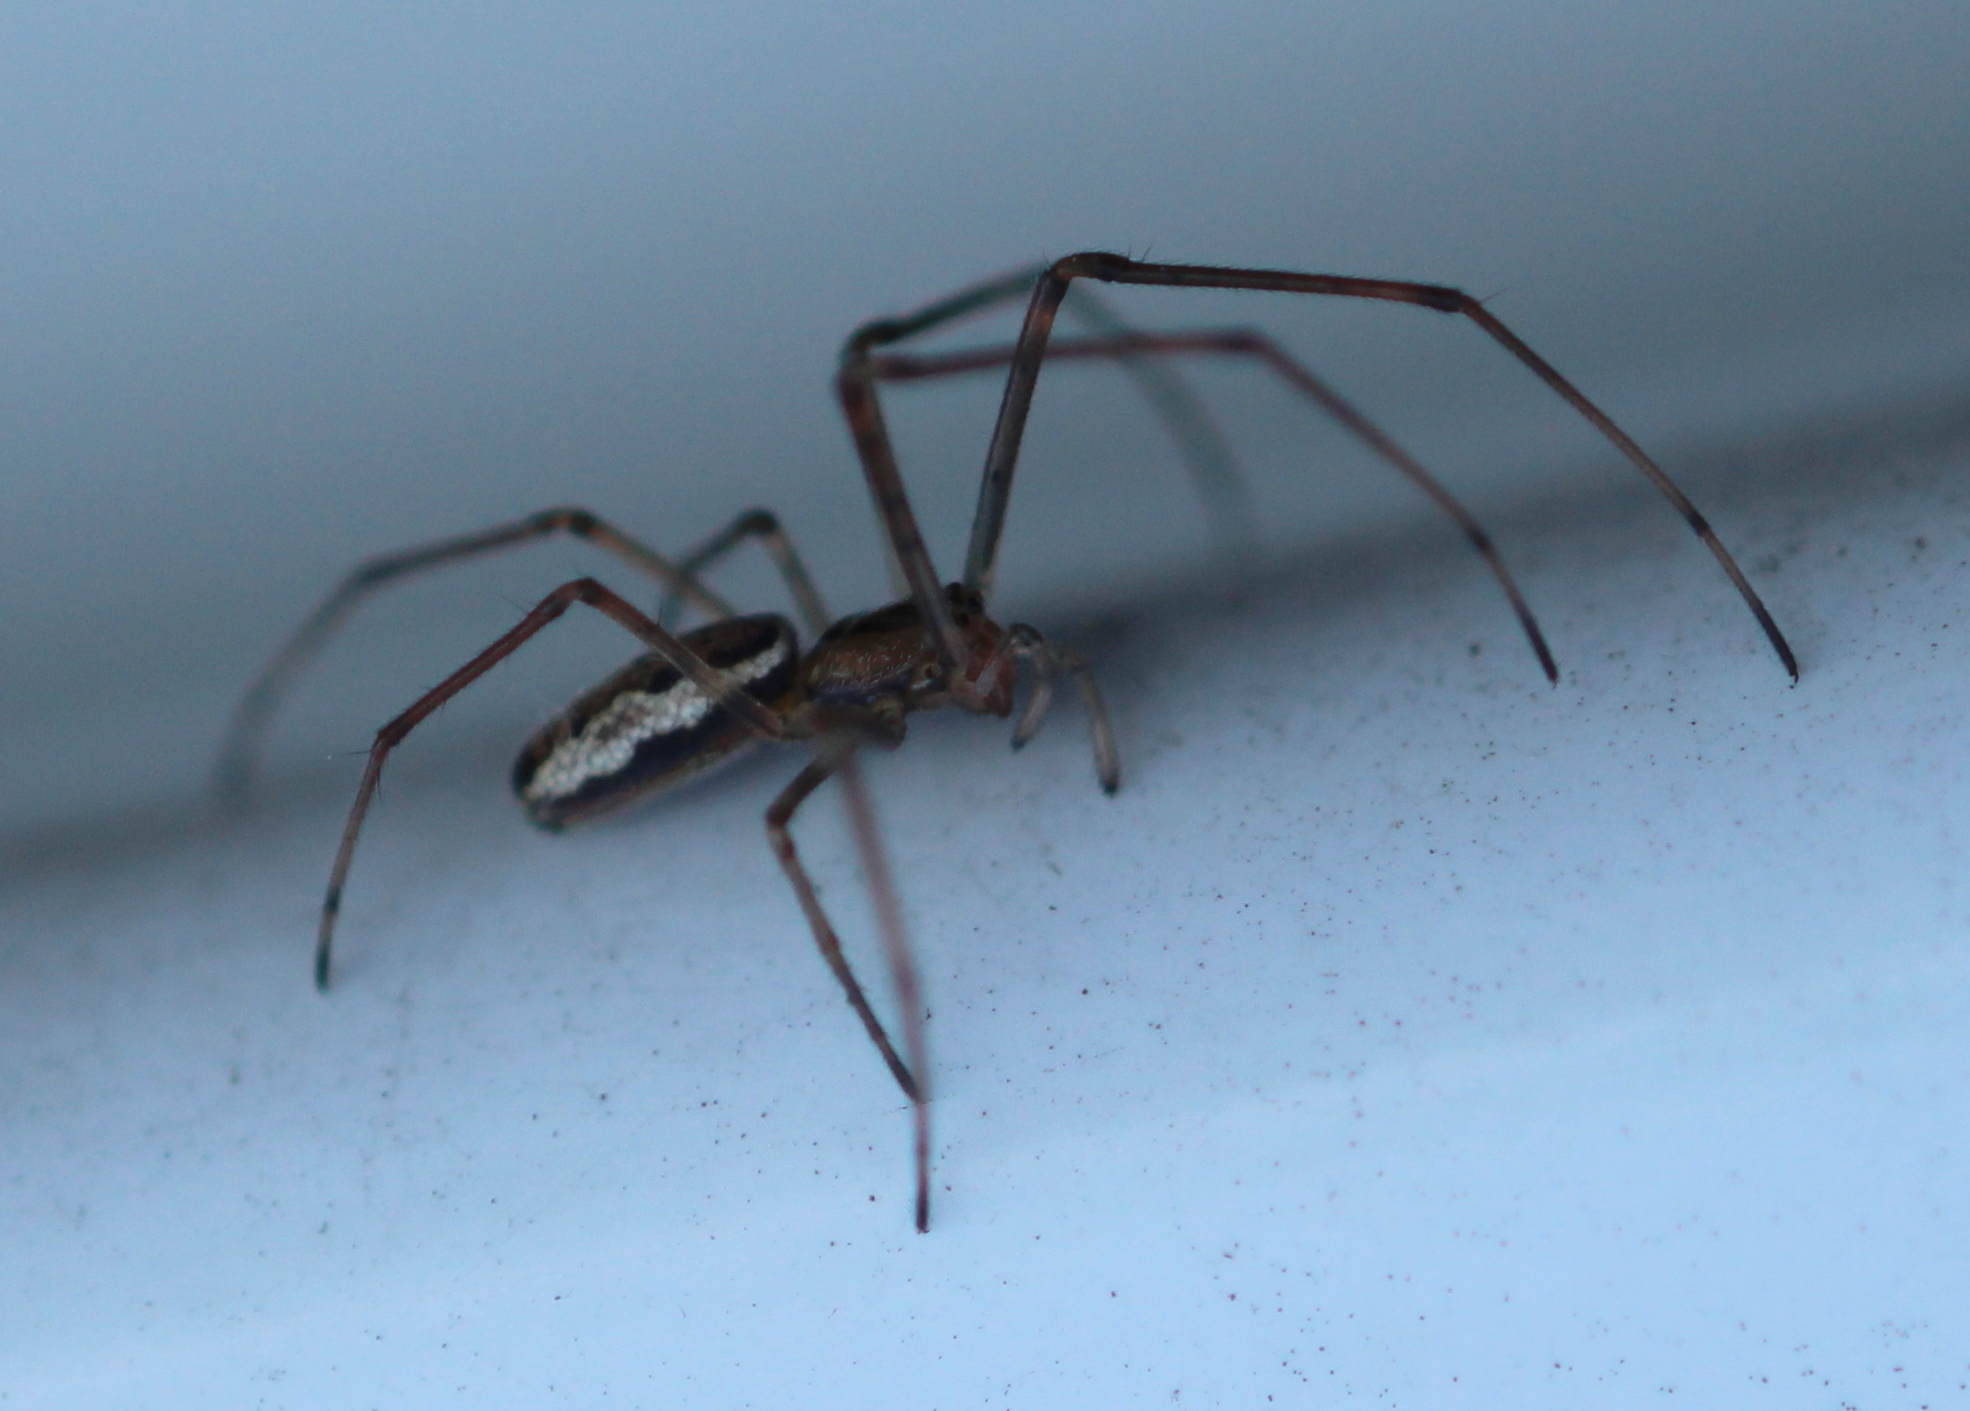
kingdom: Animalia
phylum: Arthropoda
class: Arachnida
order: Araneae
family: Tetragnathidae
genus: Tetragnatha
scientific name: Tetragnatha
